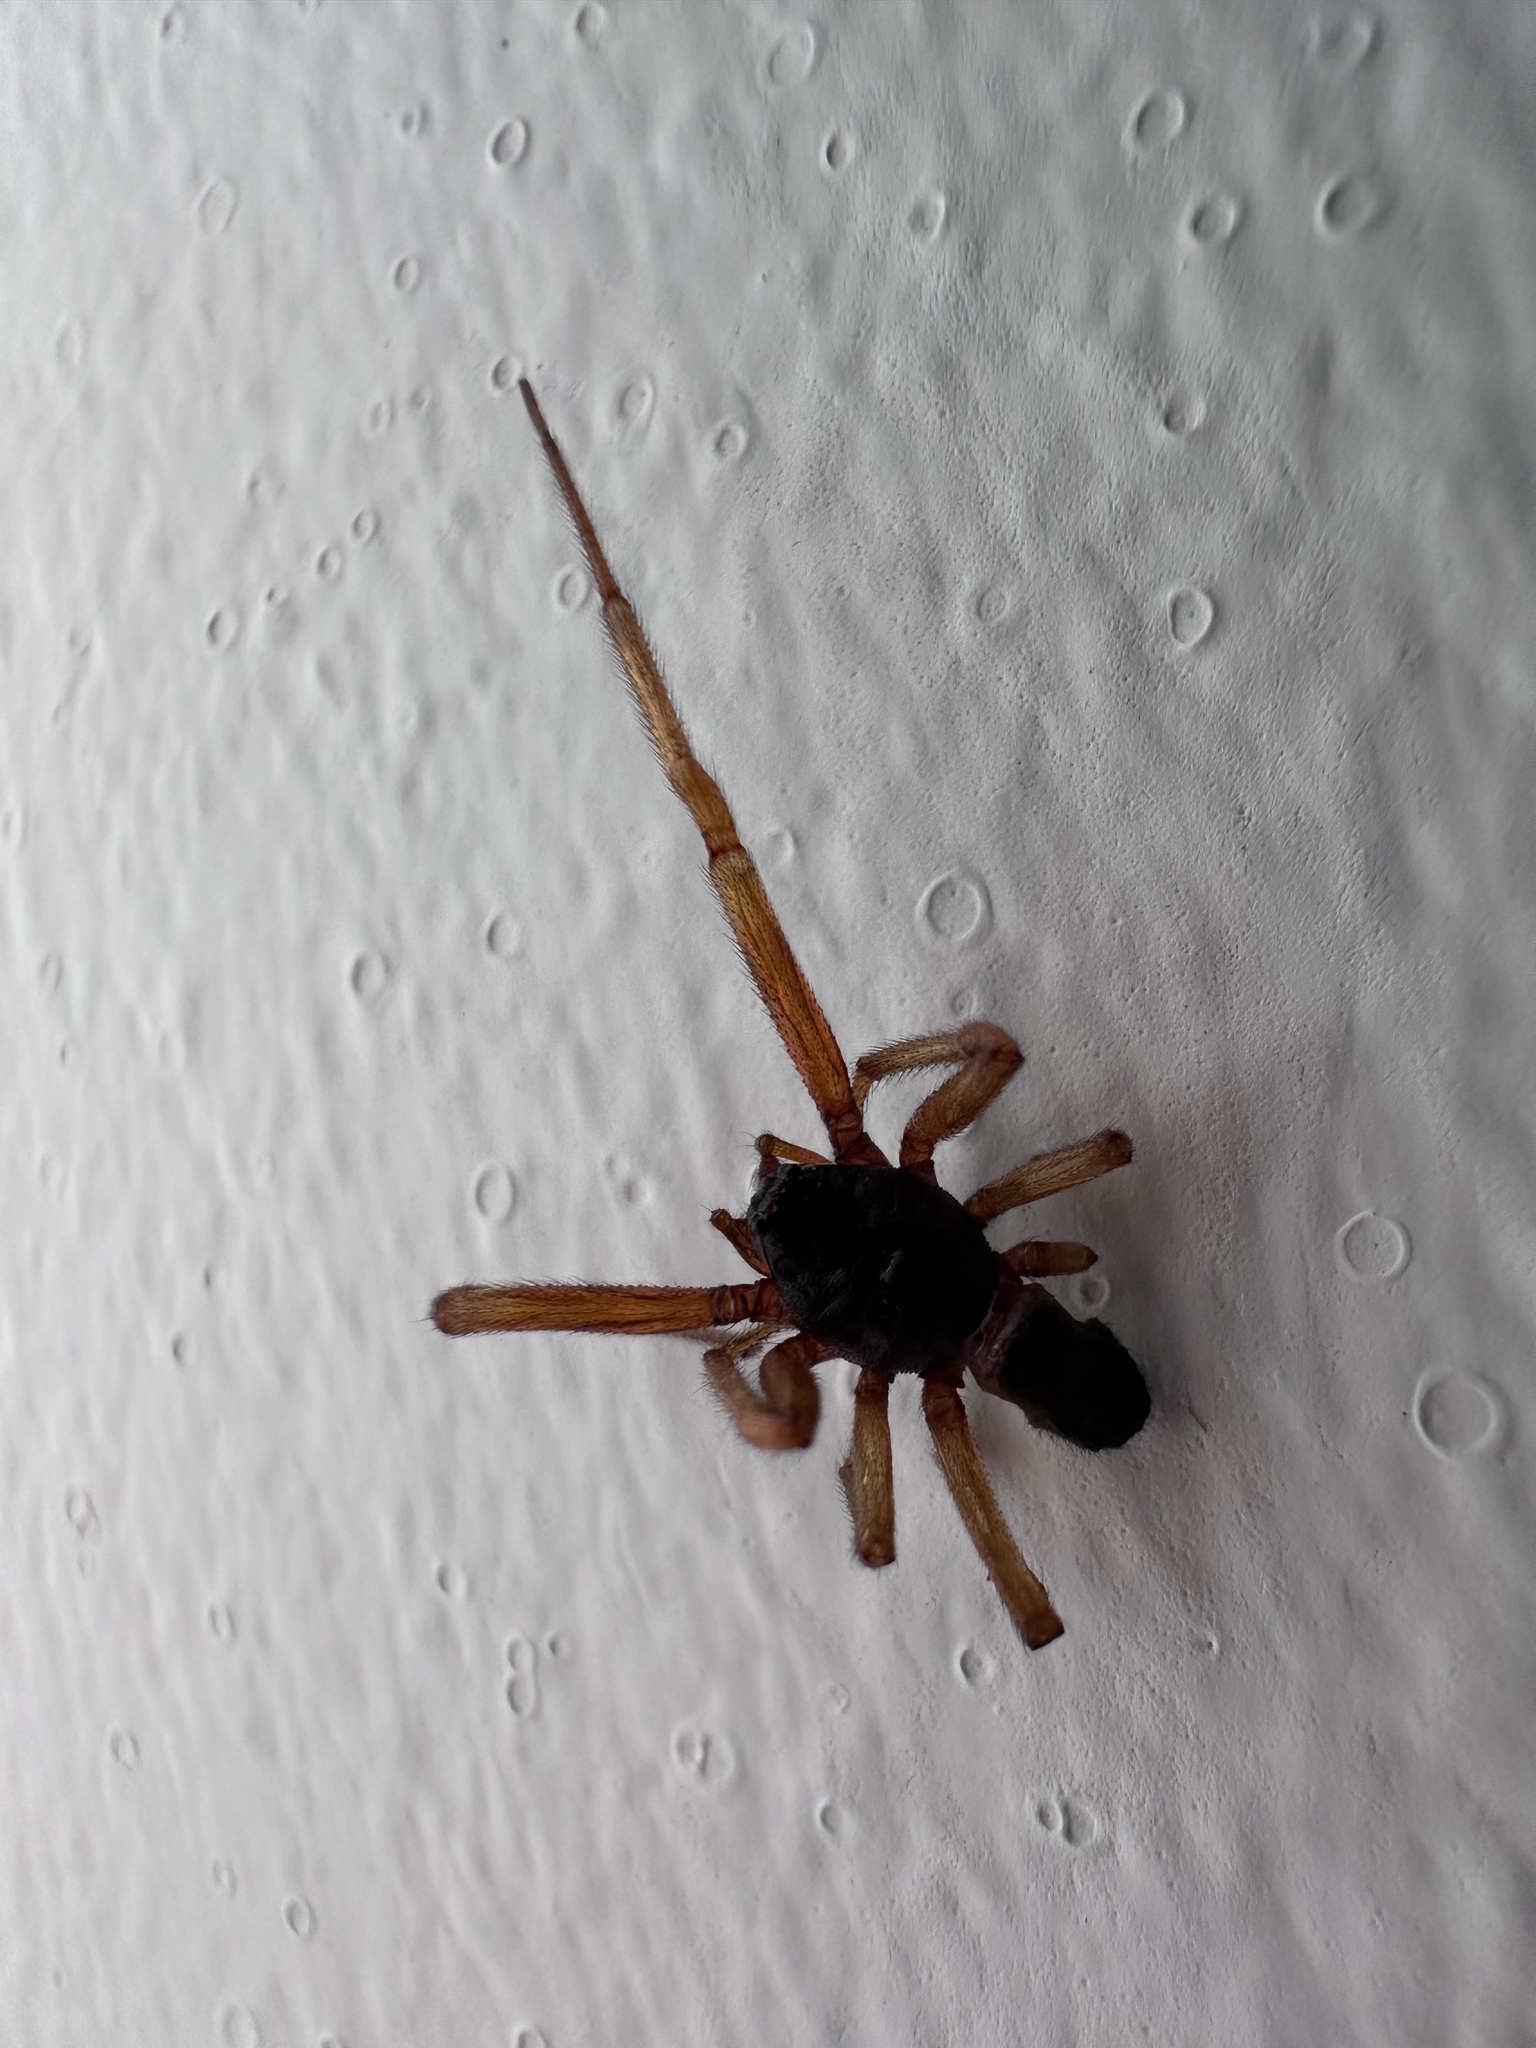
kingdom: Animalia
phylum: Arthropoda
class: Arachnida
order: Araneae
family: Theridiidae
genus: Steatoda
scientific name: Steatoda nobilis
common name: Cobweb weaver
